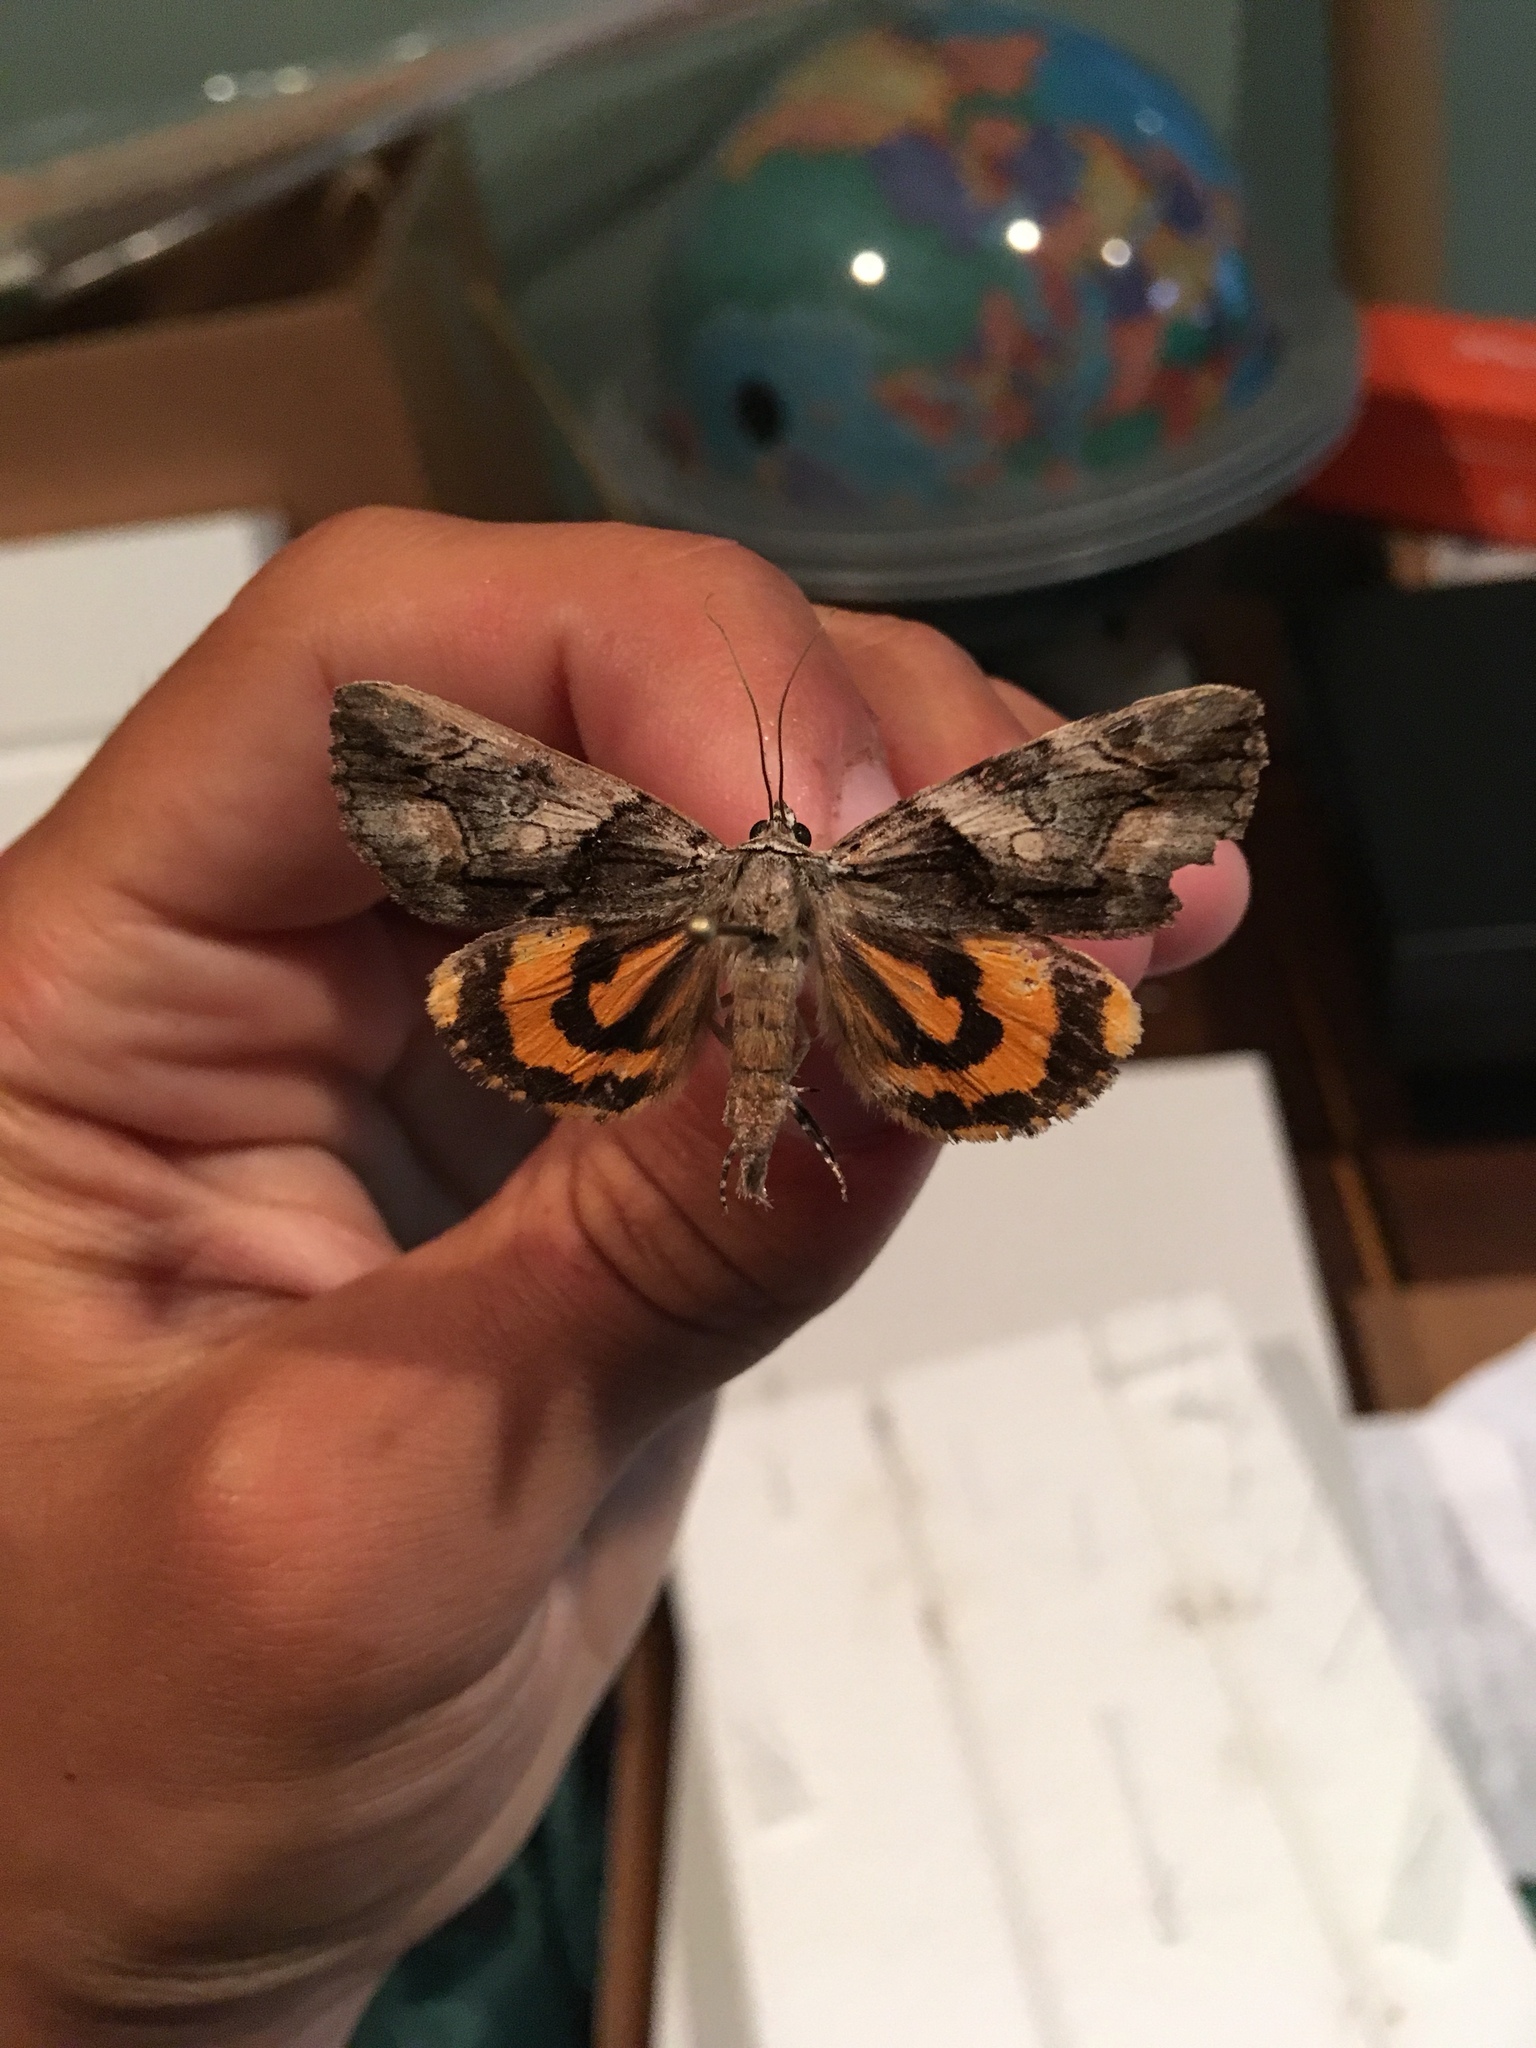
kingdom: Animalia
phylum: Arthropoda
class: Insecta
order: Lepidoptera
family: Erebidae
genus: Catocala
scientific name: Catocala blandula
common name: Charming underwing
